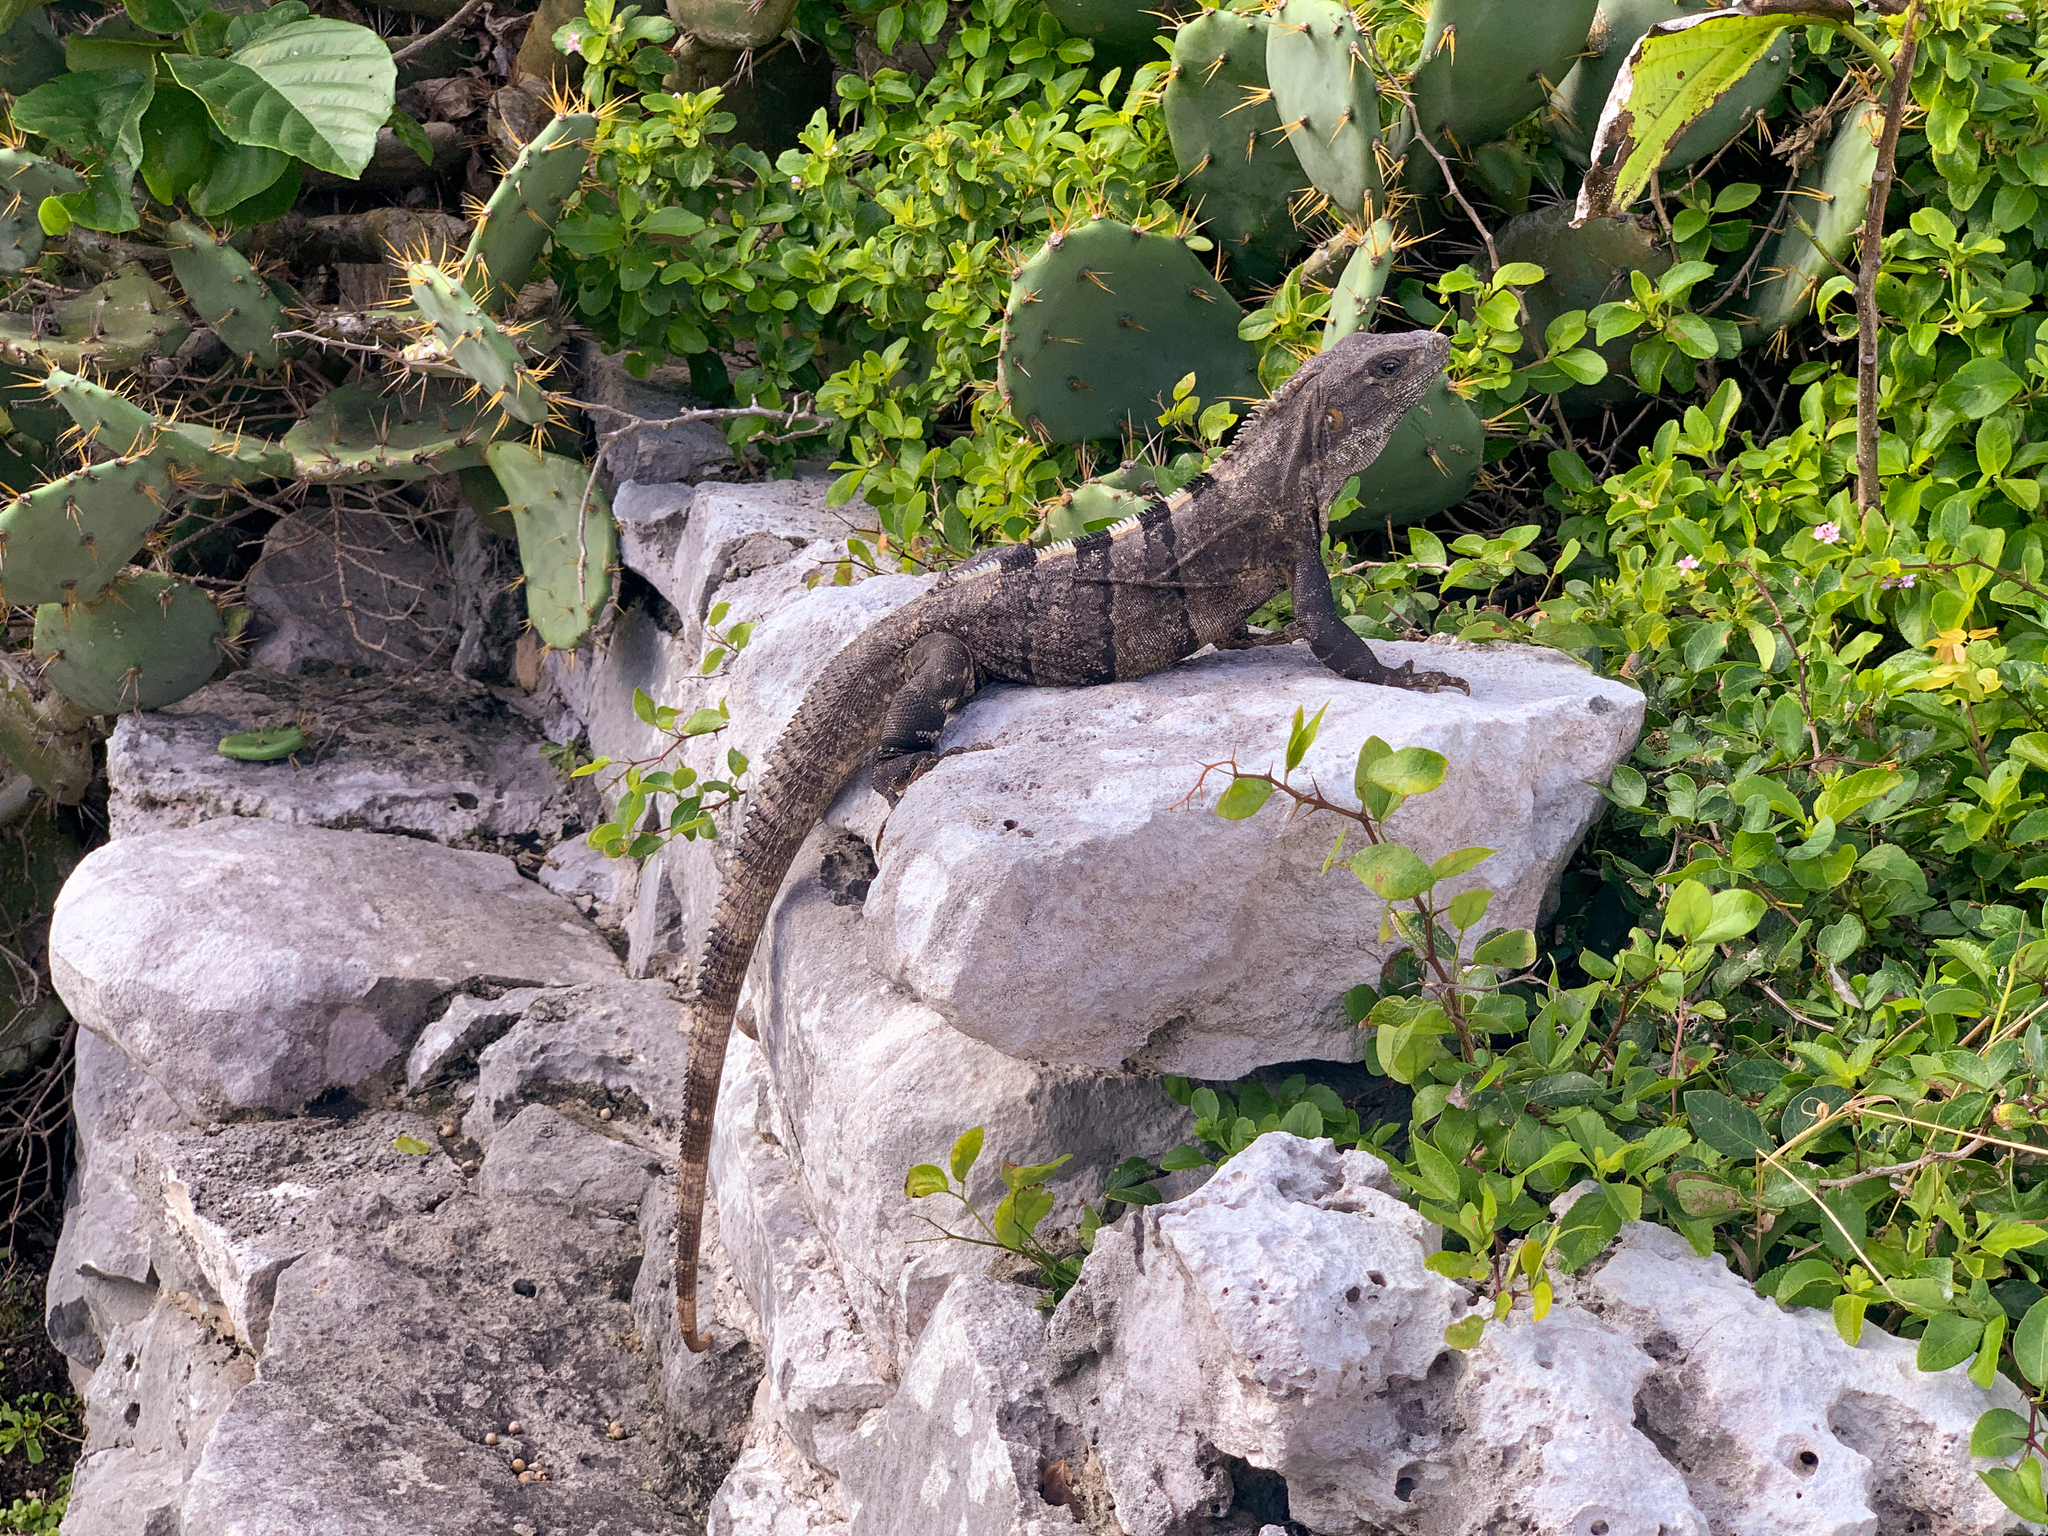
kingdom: Animalia
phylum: Chordata
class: Squamata
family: Iguanidae
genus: Ctenosaura
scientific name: Ctenosaura similis
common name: Black spiny-tailed iguana
